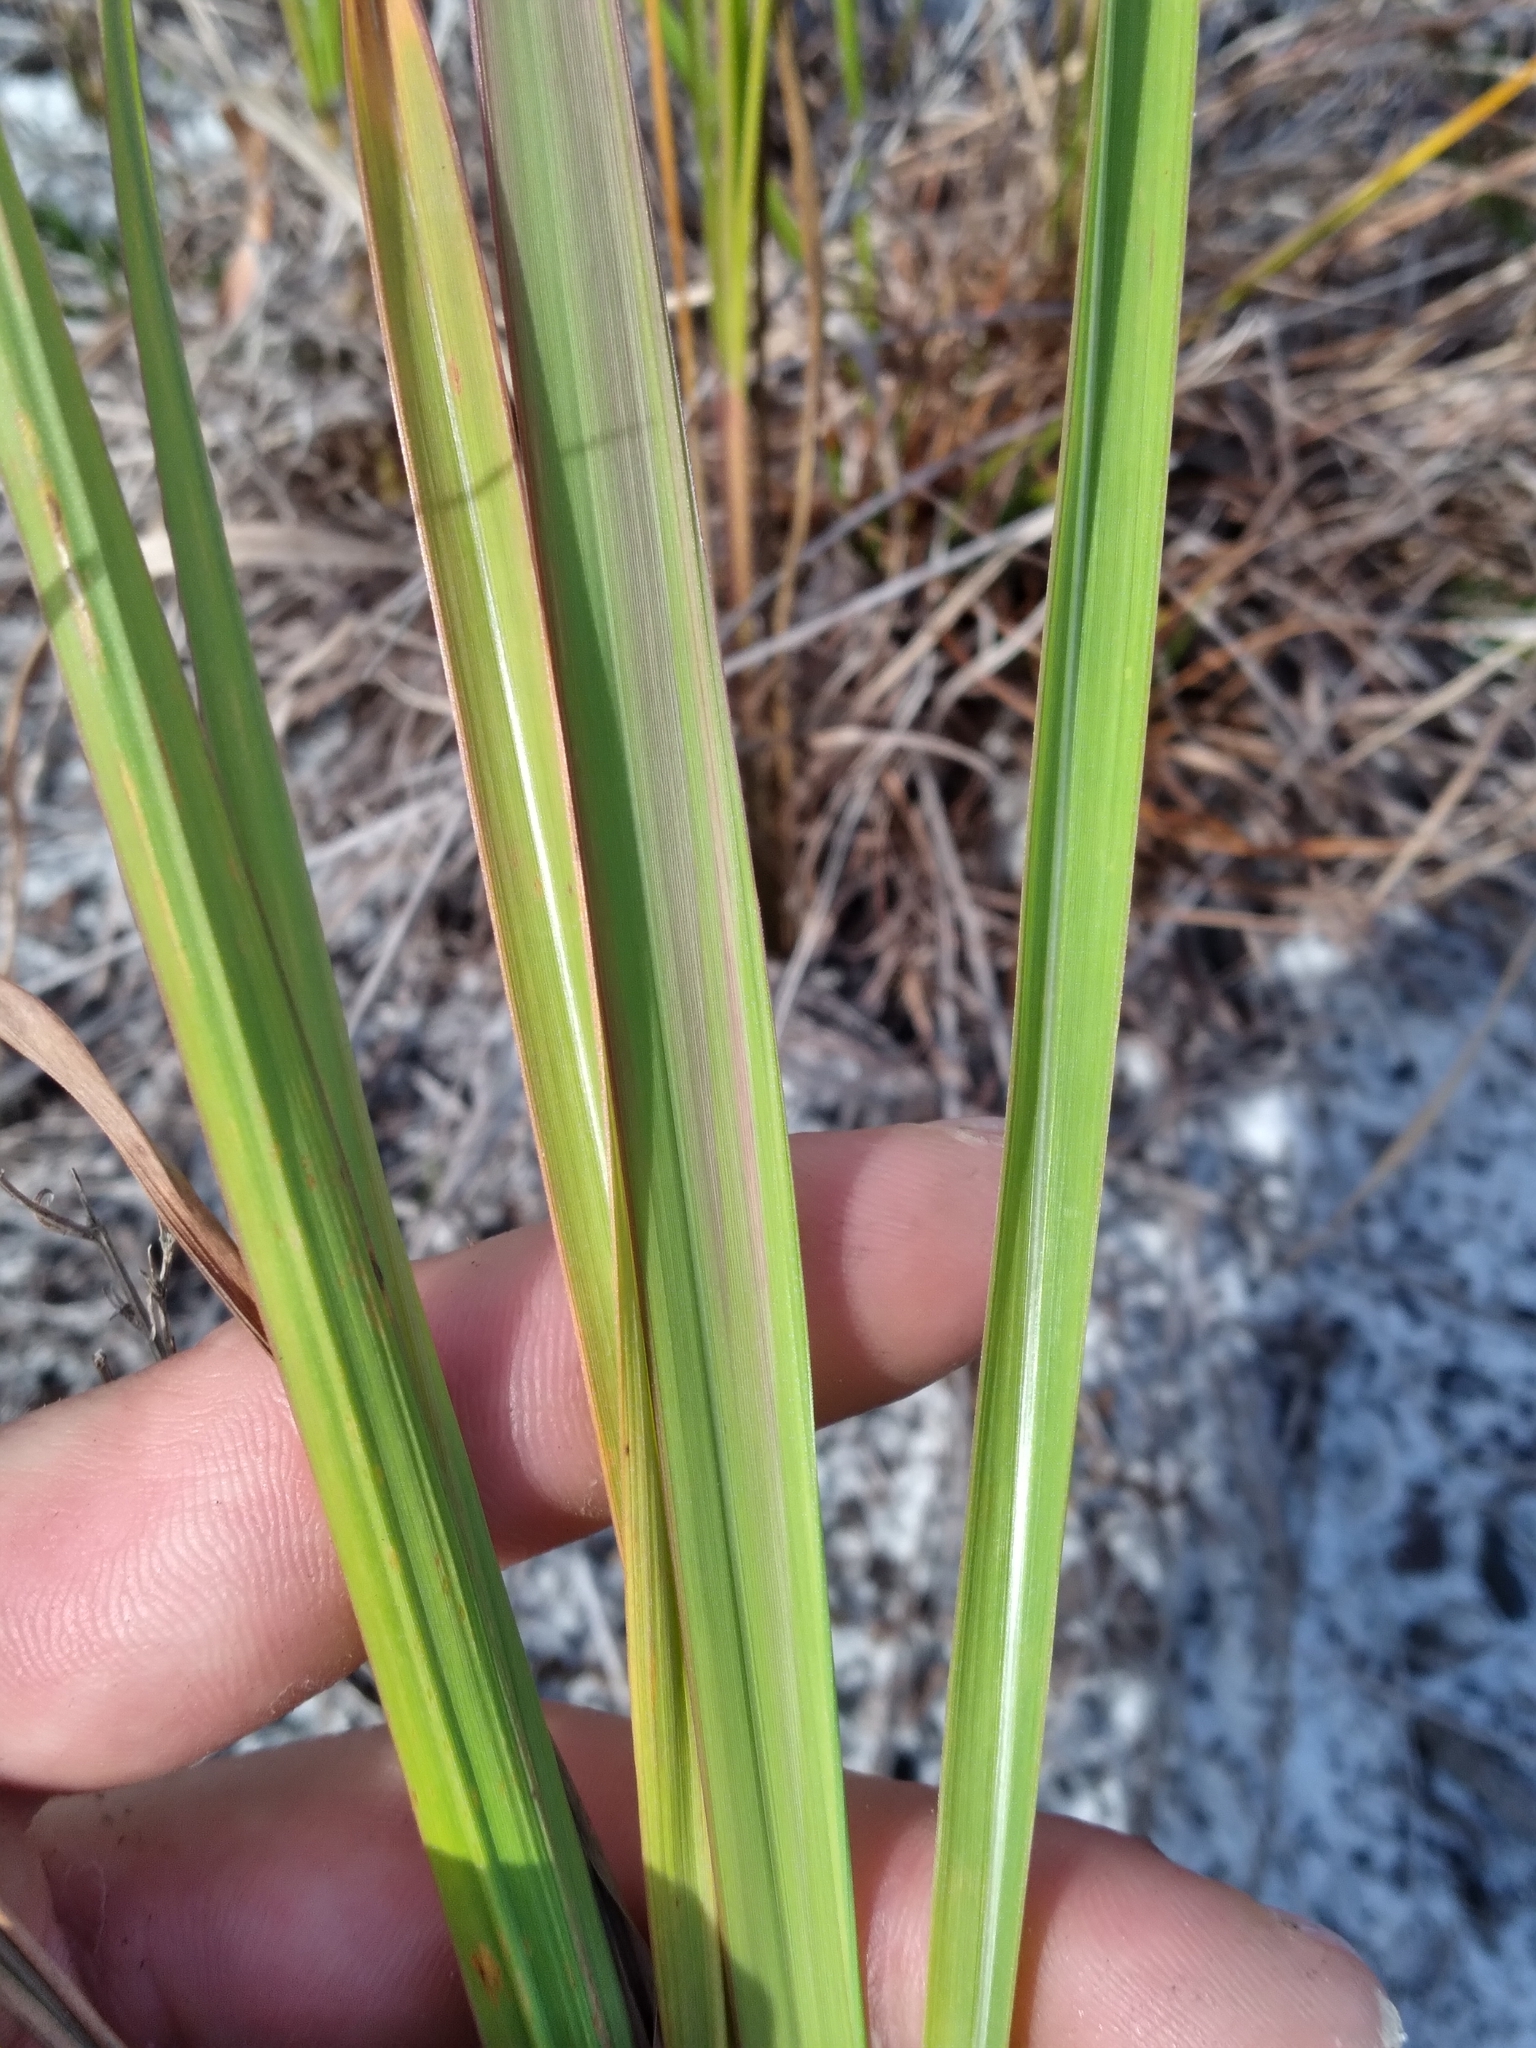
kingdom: Plantae
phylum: Tracheophyta
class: Liliopsida
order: Poales
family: Poaceae
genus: Imperata
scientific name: Imperata cylindrica
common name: Cogongrass
